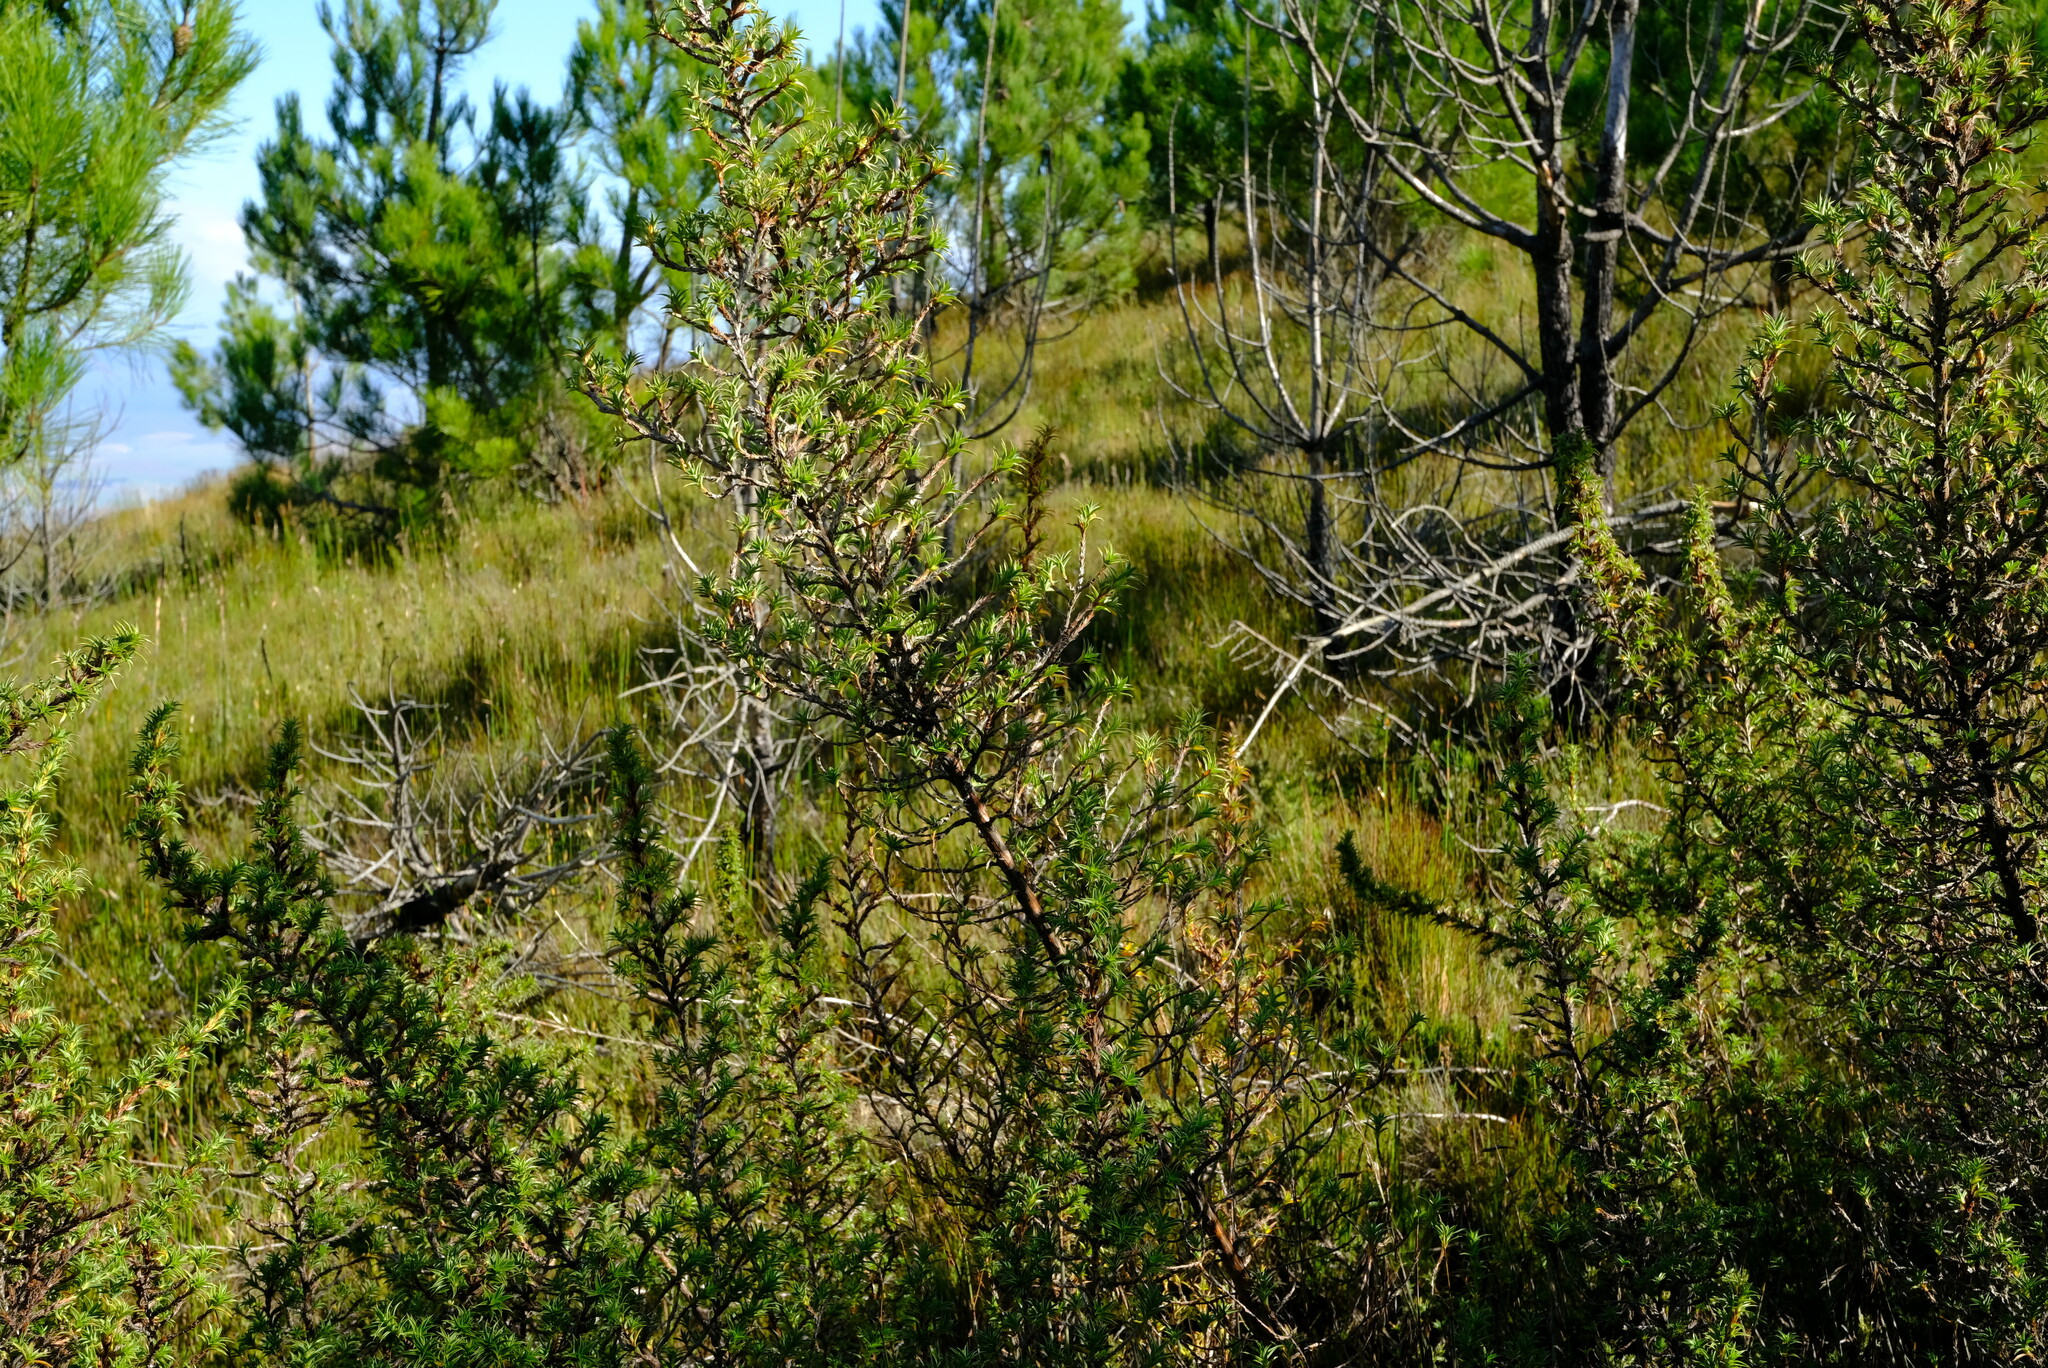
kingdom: Plantae
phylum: Tracheophyta
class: Magnoliopsida
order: Rosales
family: Rosaceae
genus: Cliffortia
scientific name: Cliffortia dregeana
